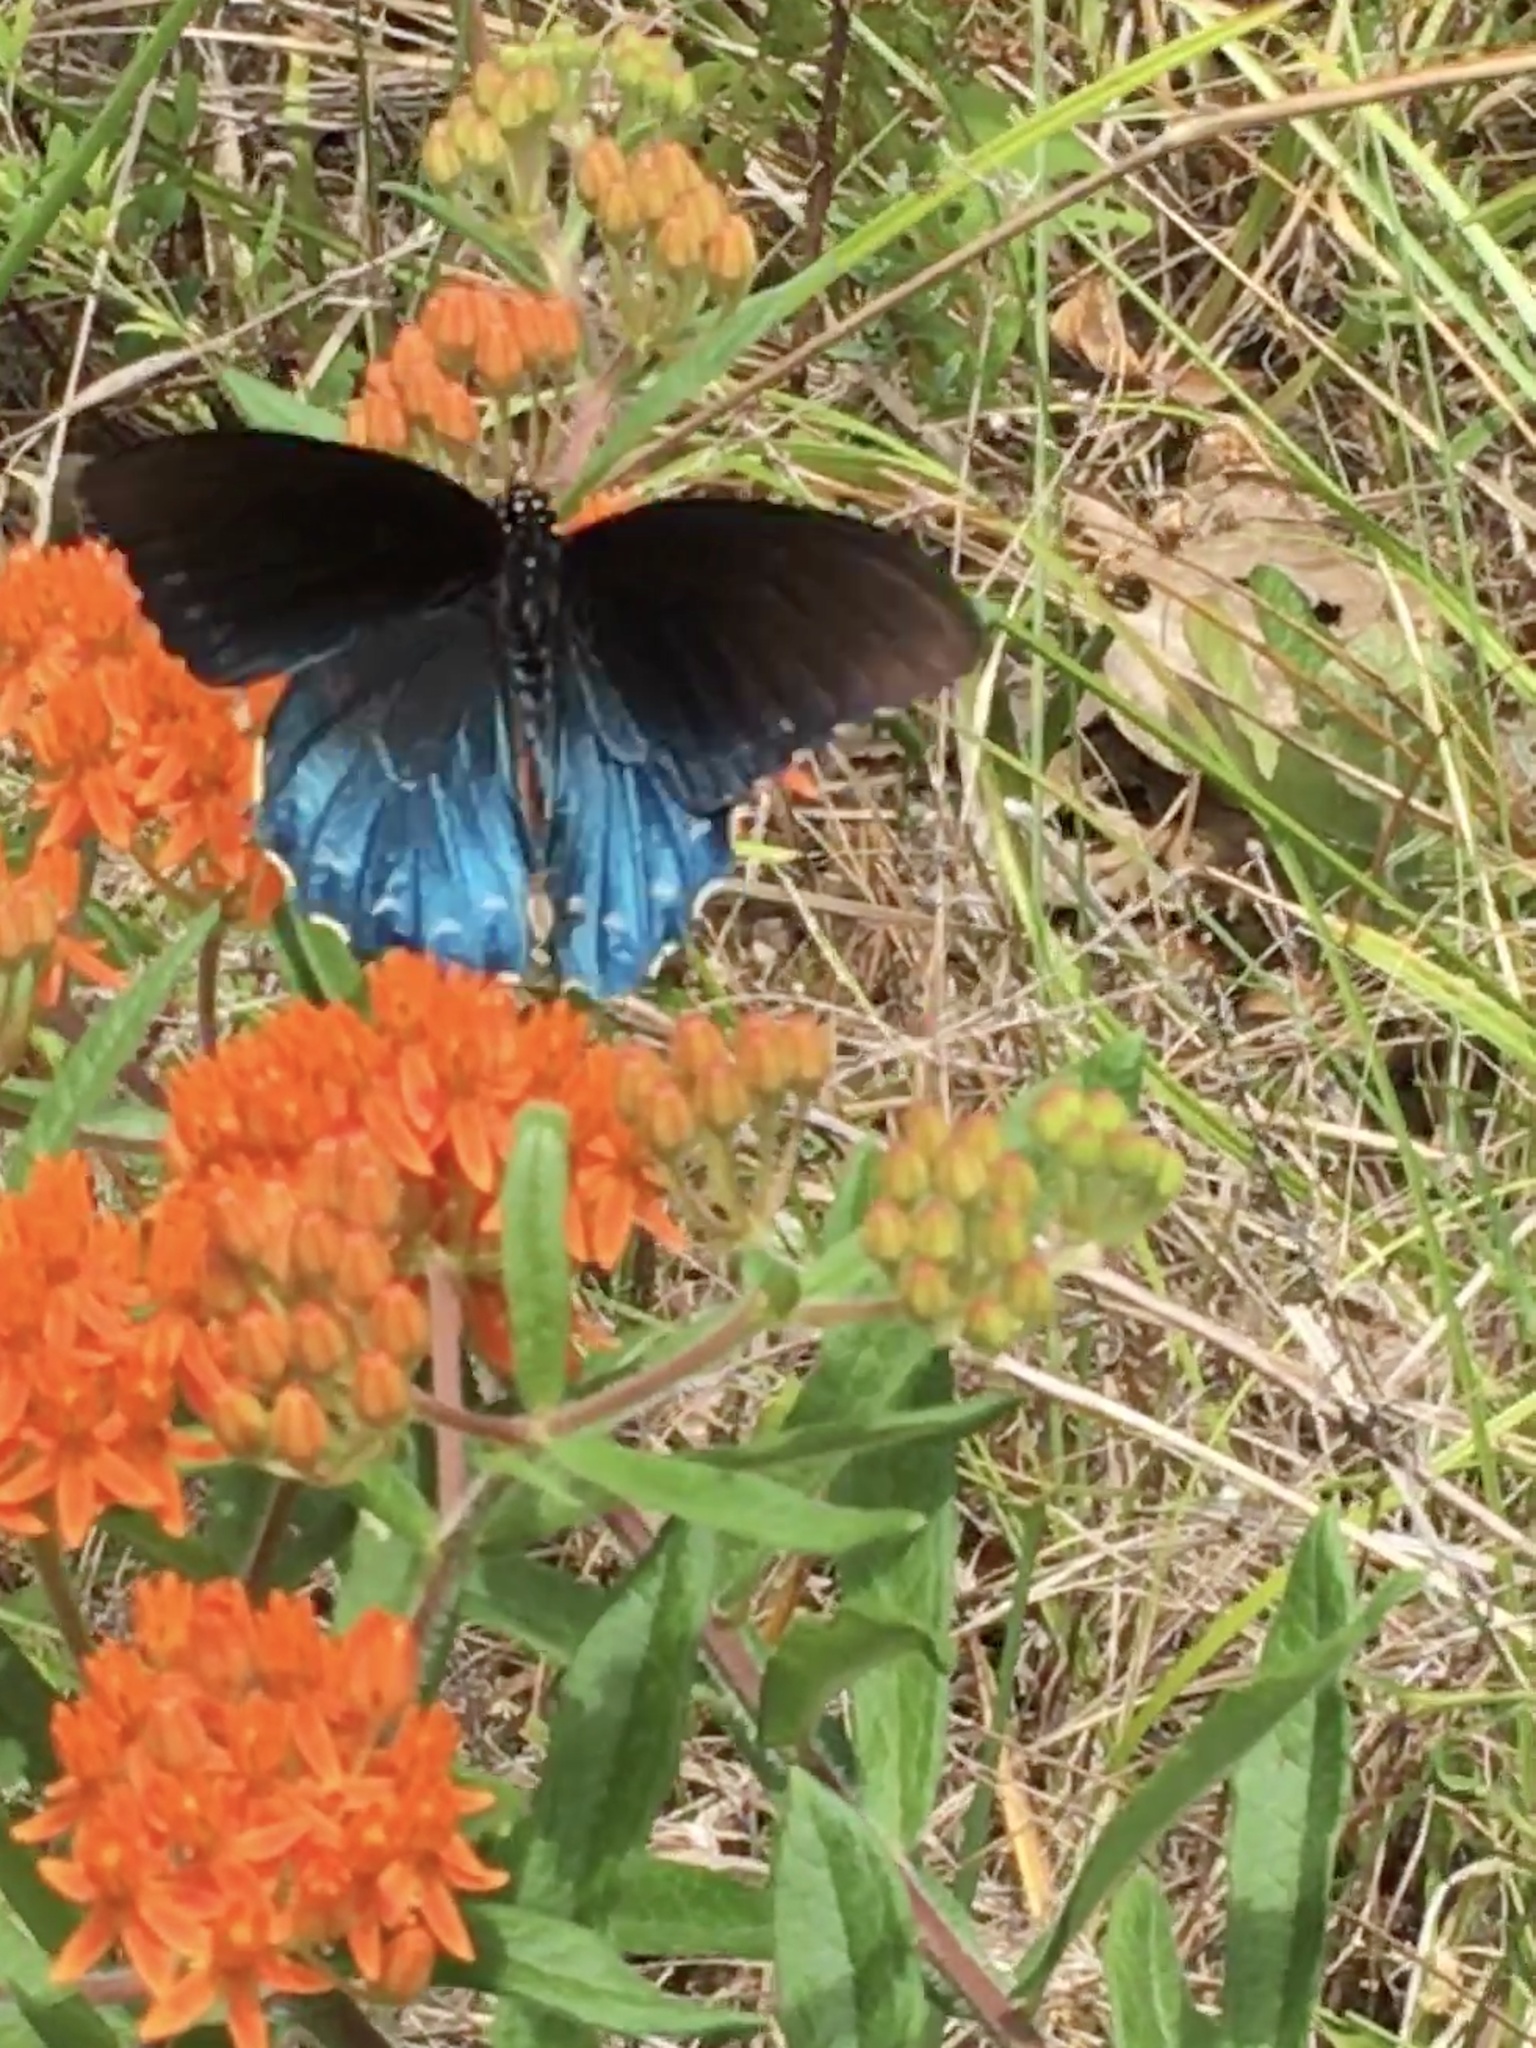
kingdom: Animalia
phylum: Arthropoda
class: Insecta
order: Lepidoptera
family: Papilionidae
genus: Battus
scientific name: Battus philenor
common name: Pipevine swallowtail
